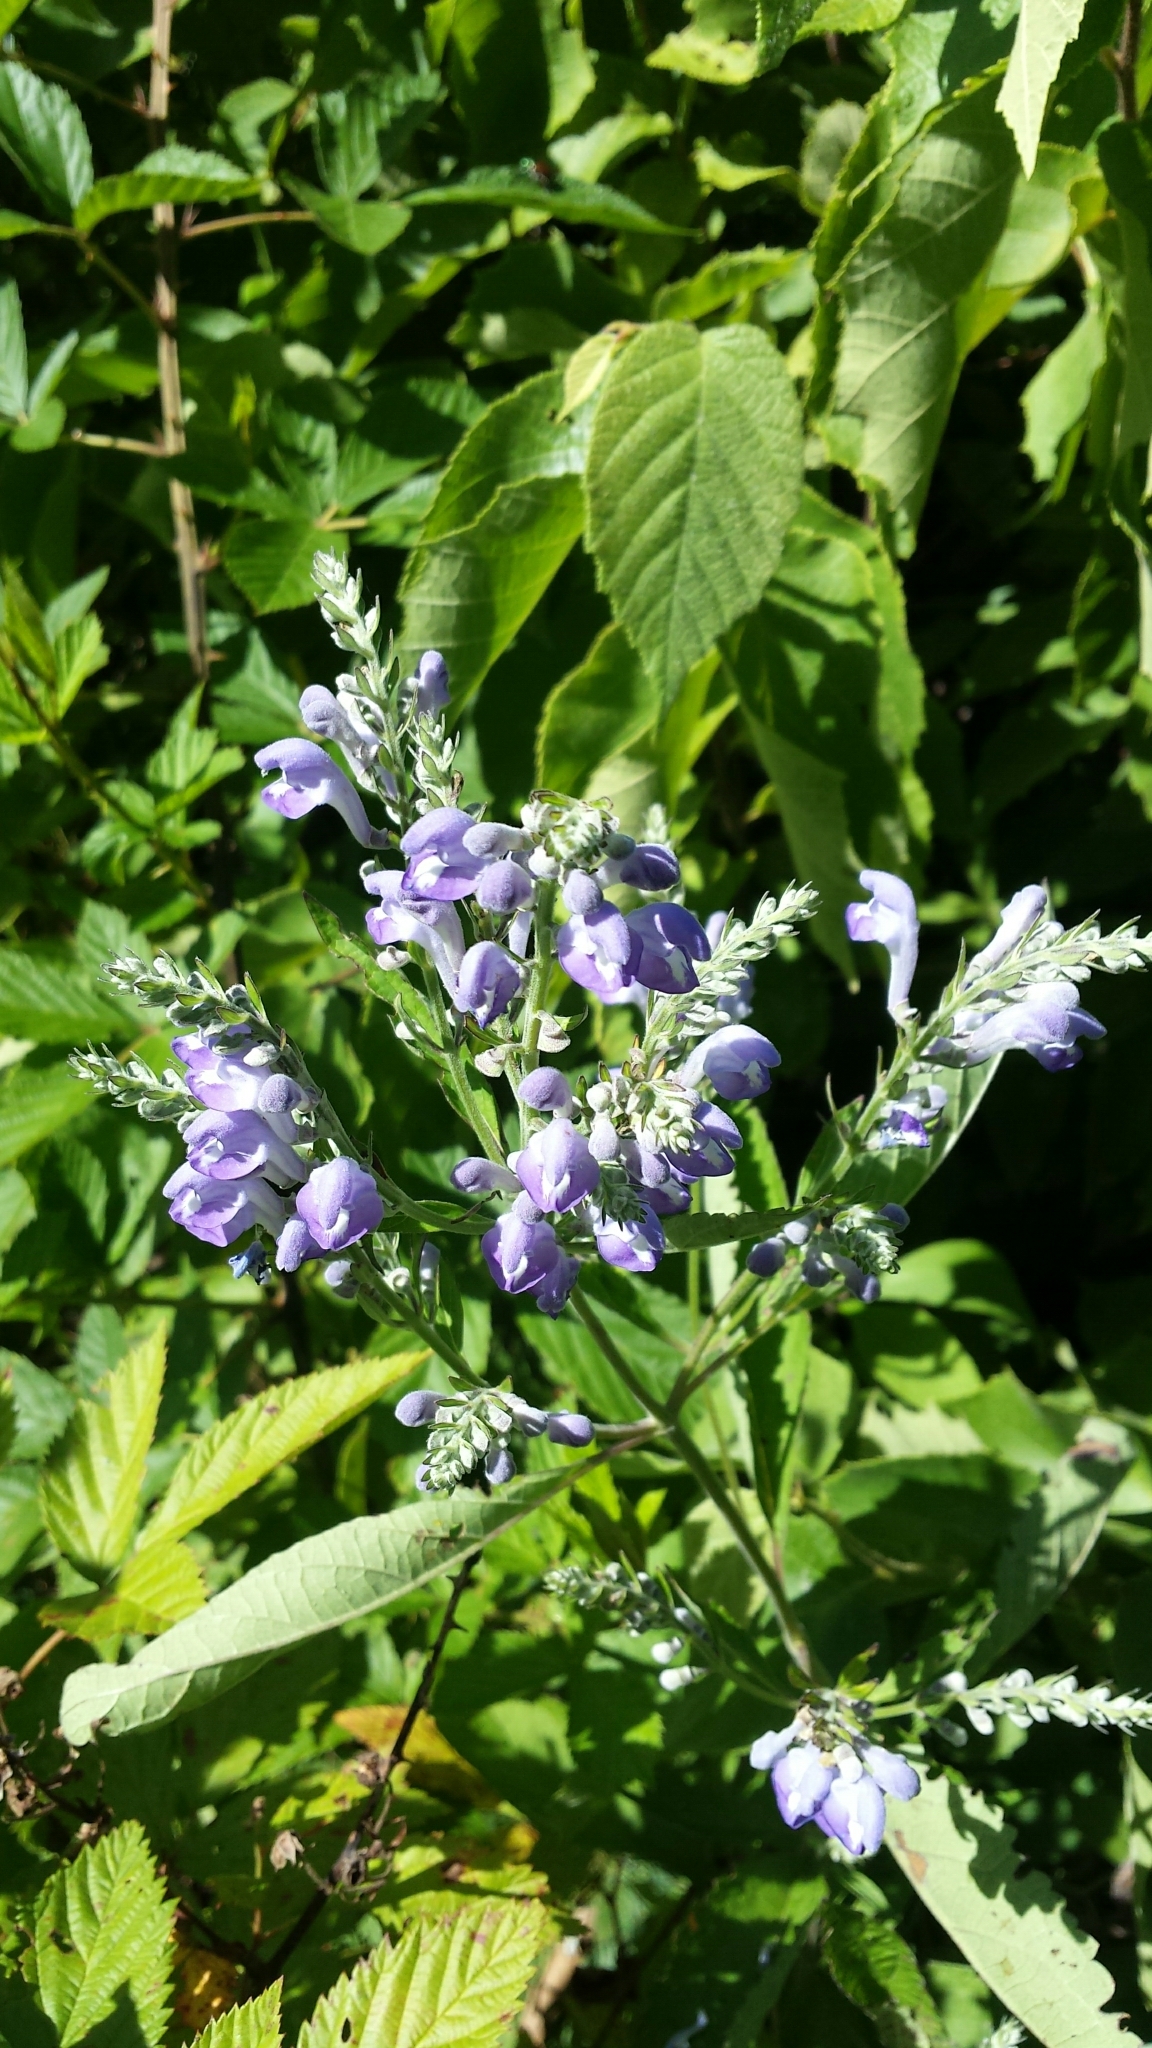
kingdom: Plantae
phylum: Tracheophyta
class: Magnoliopsida
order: Lamiales
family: Lamiaceae
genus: Scutellaria
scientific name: Scutellaria incana
